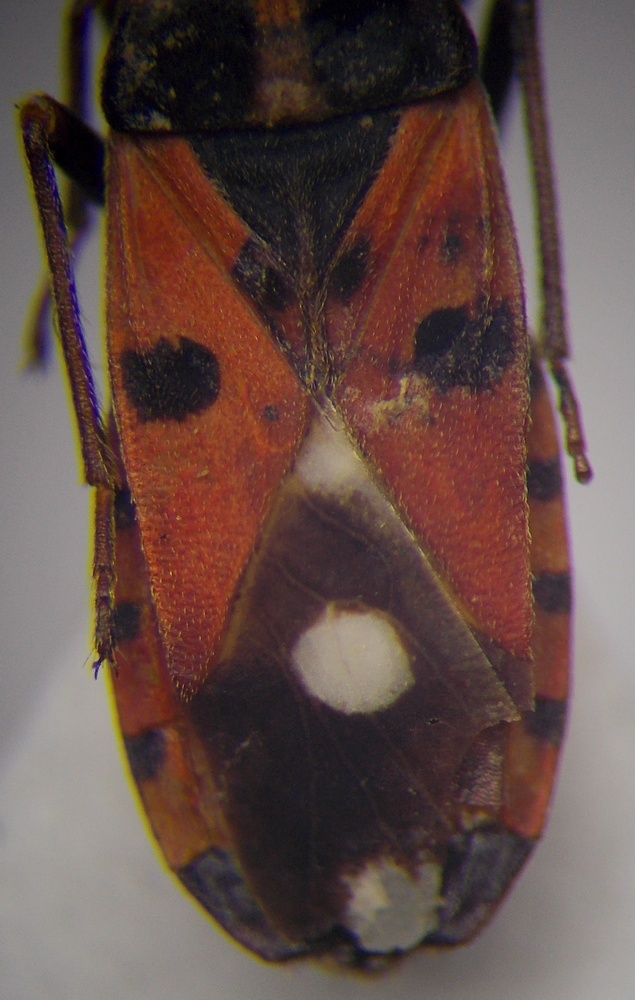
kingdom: Animalia
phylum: Arthropoda
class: Insecta
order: Hemiptera
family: Lygaeidae
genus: Horvathiolus
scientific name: Horvathiolus syriacus
